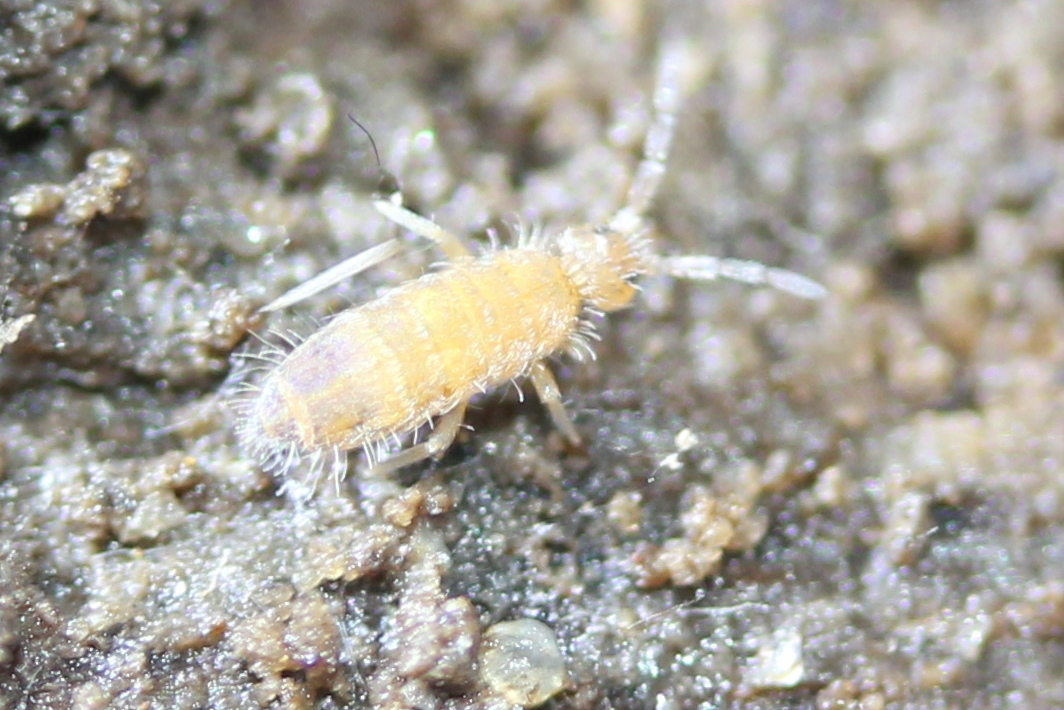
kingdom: Animalia
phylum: Arthropoda
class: Collembola
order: Entomobryomorpha
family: Entomobryidae
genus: Entomobrya
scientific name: Entomobrya assuta
